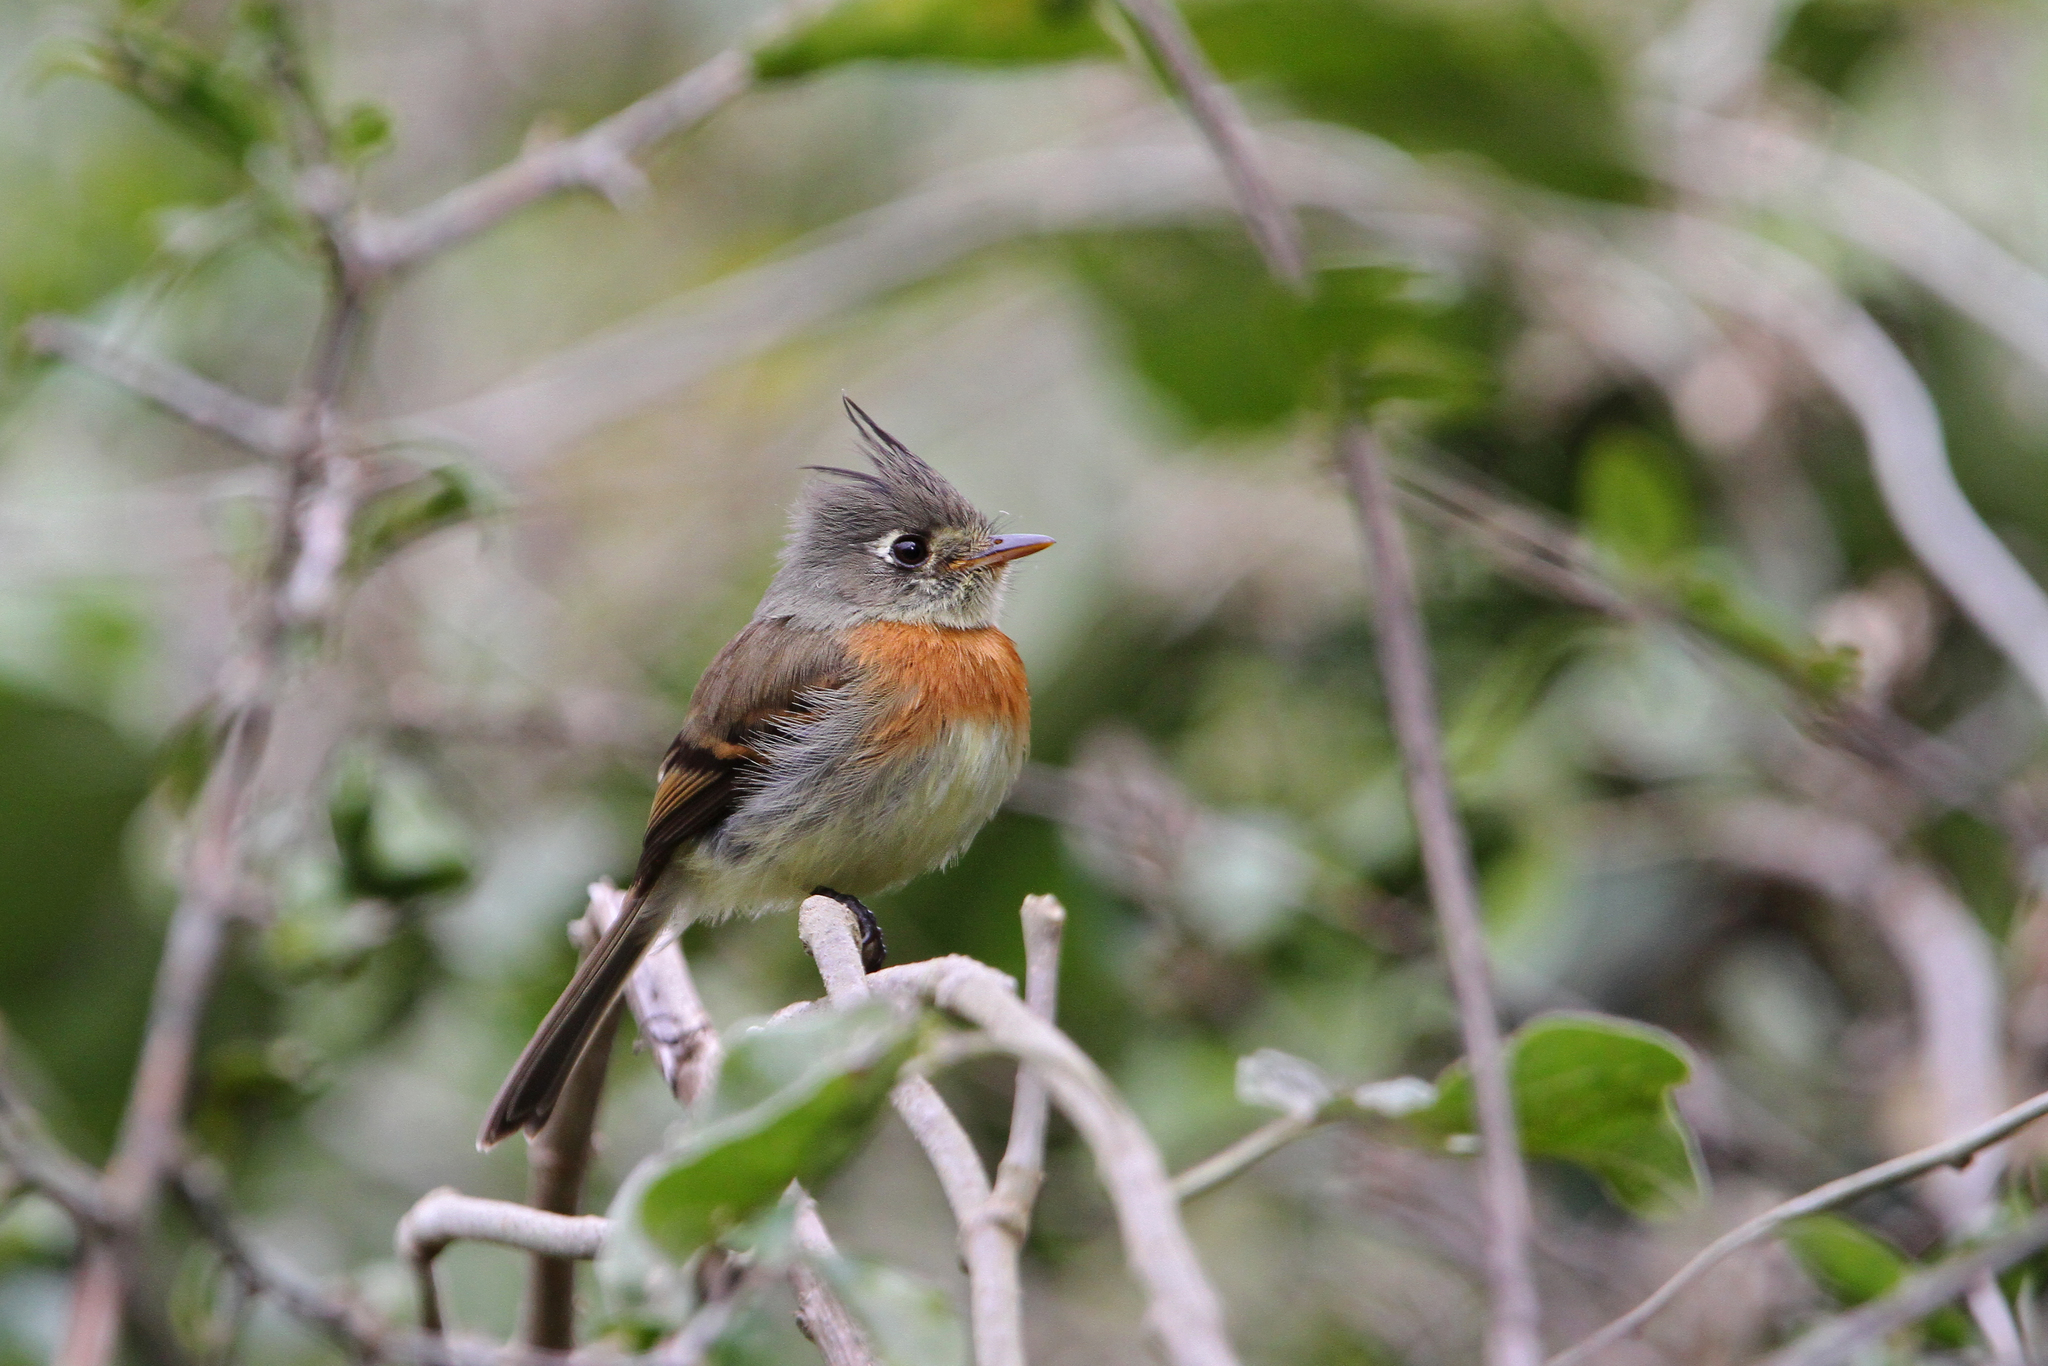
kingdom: Animalia
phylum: Chordata
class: Aves
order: Passeriformes
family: Tyrannidae
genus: Xenotriccus
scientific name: Xenotriccus callizonus
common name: Belted flycatcher
